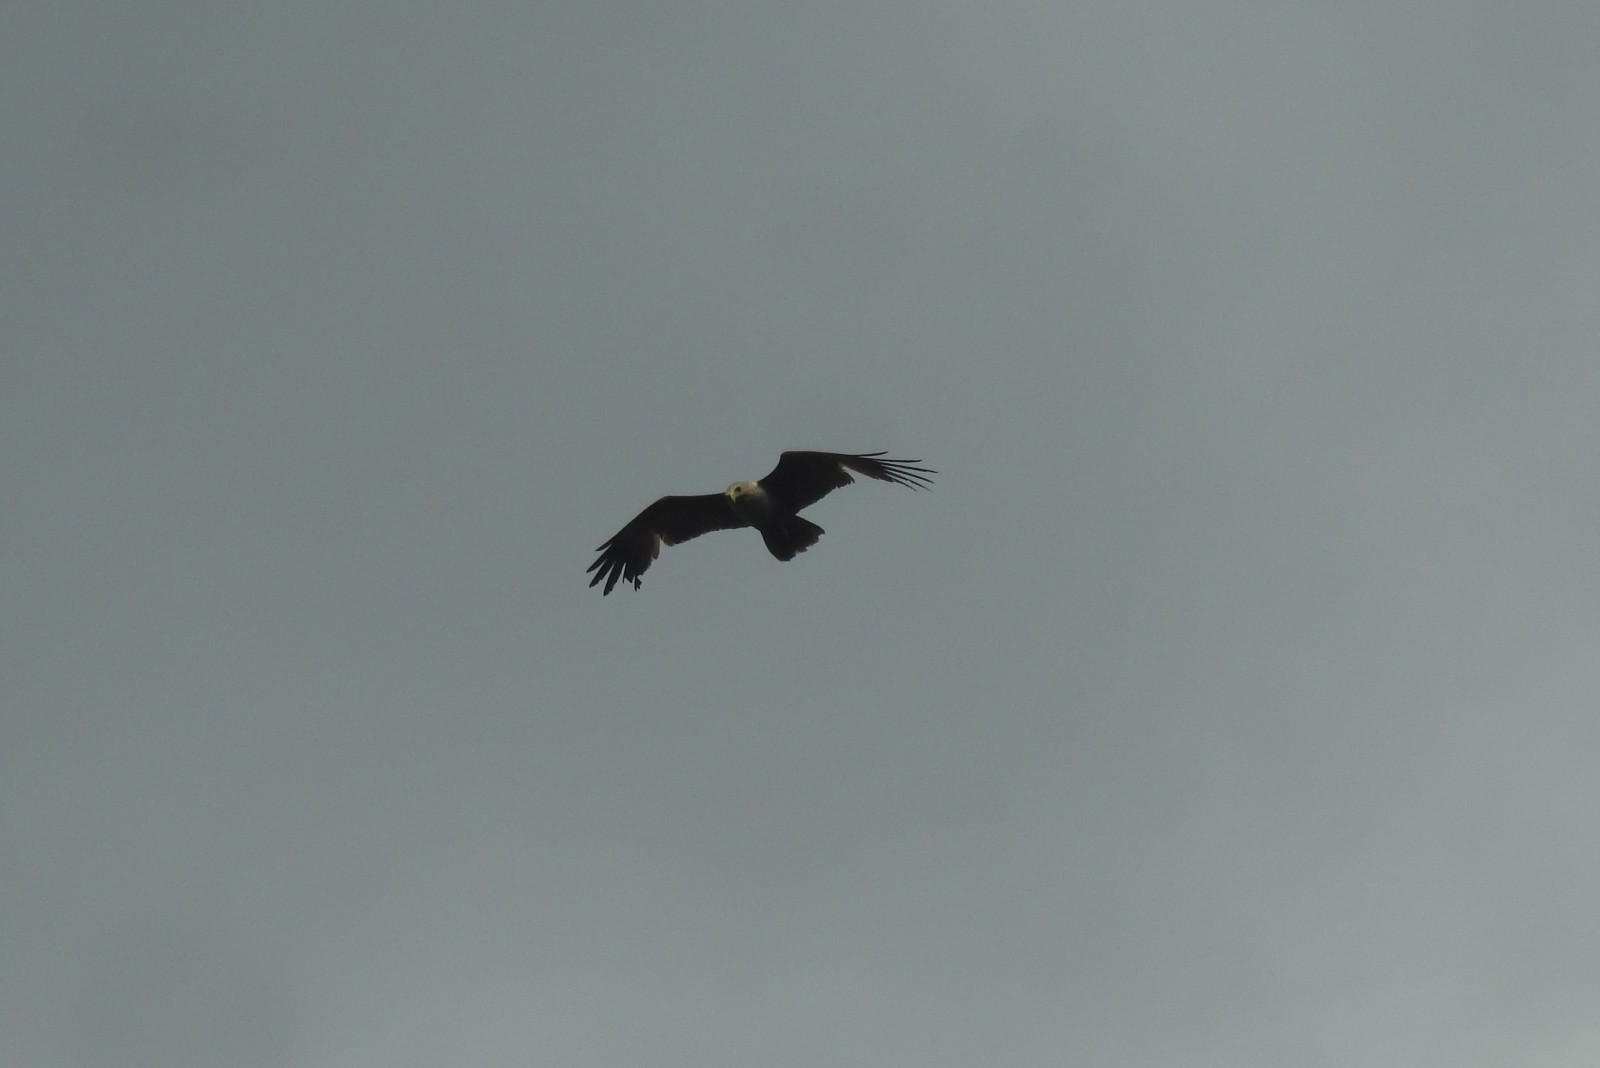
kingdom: Animalia
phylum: Chordata
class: Aves
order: Accipitriformes
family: Accipitridae
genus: Haliastur
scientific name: Haliastur indus
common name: Brahminy kite
